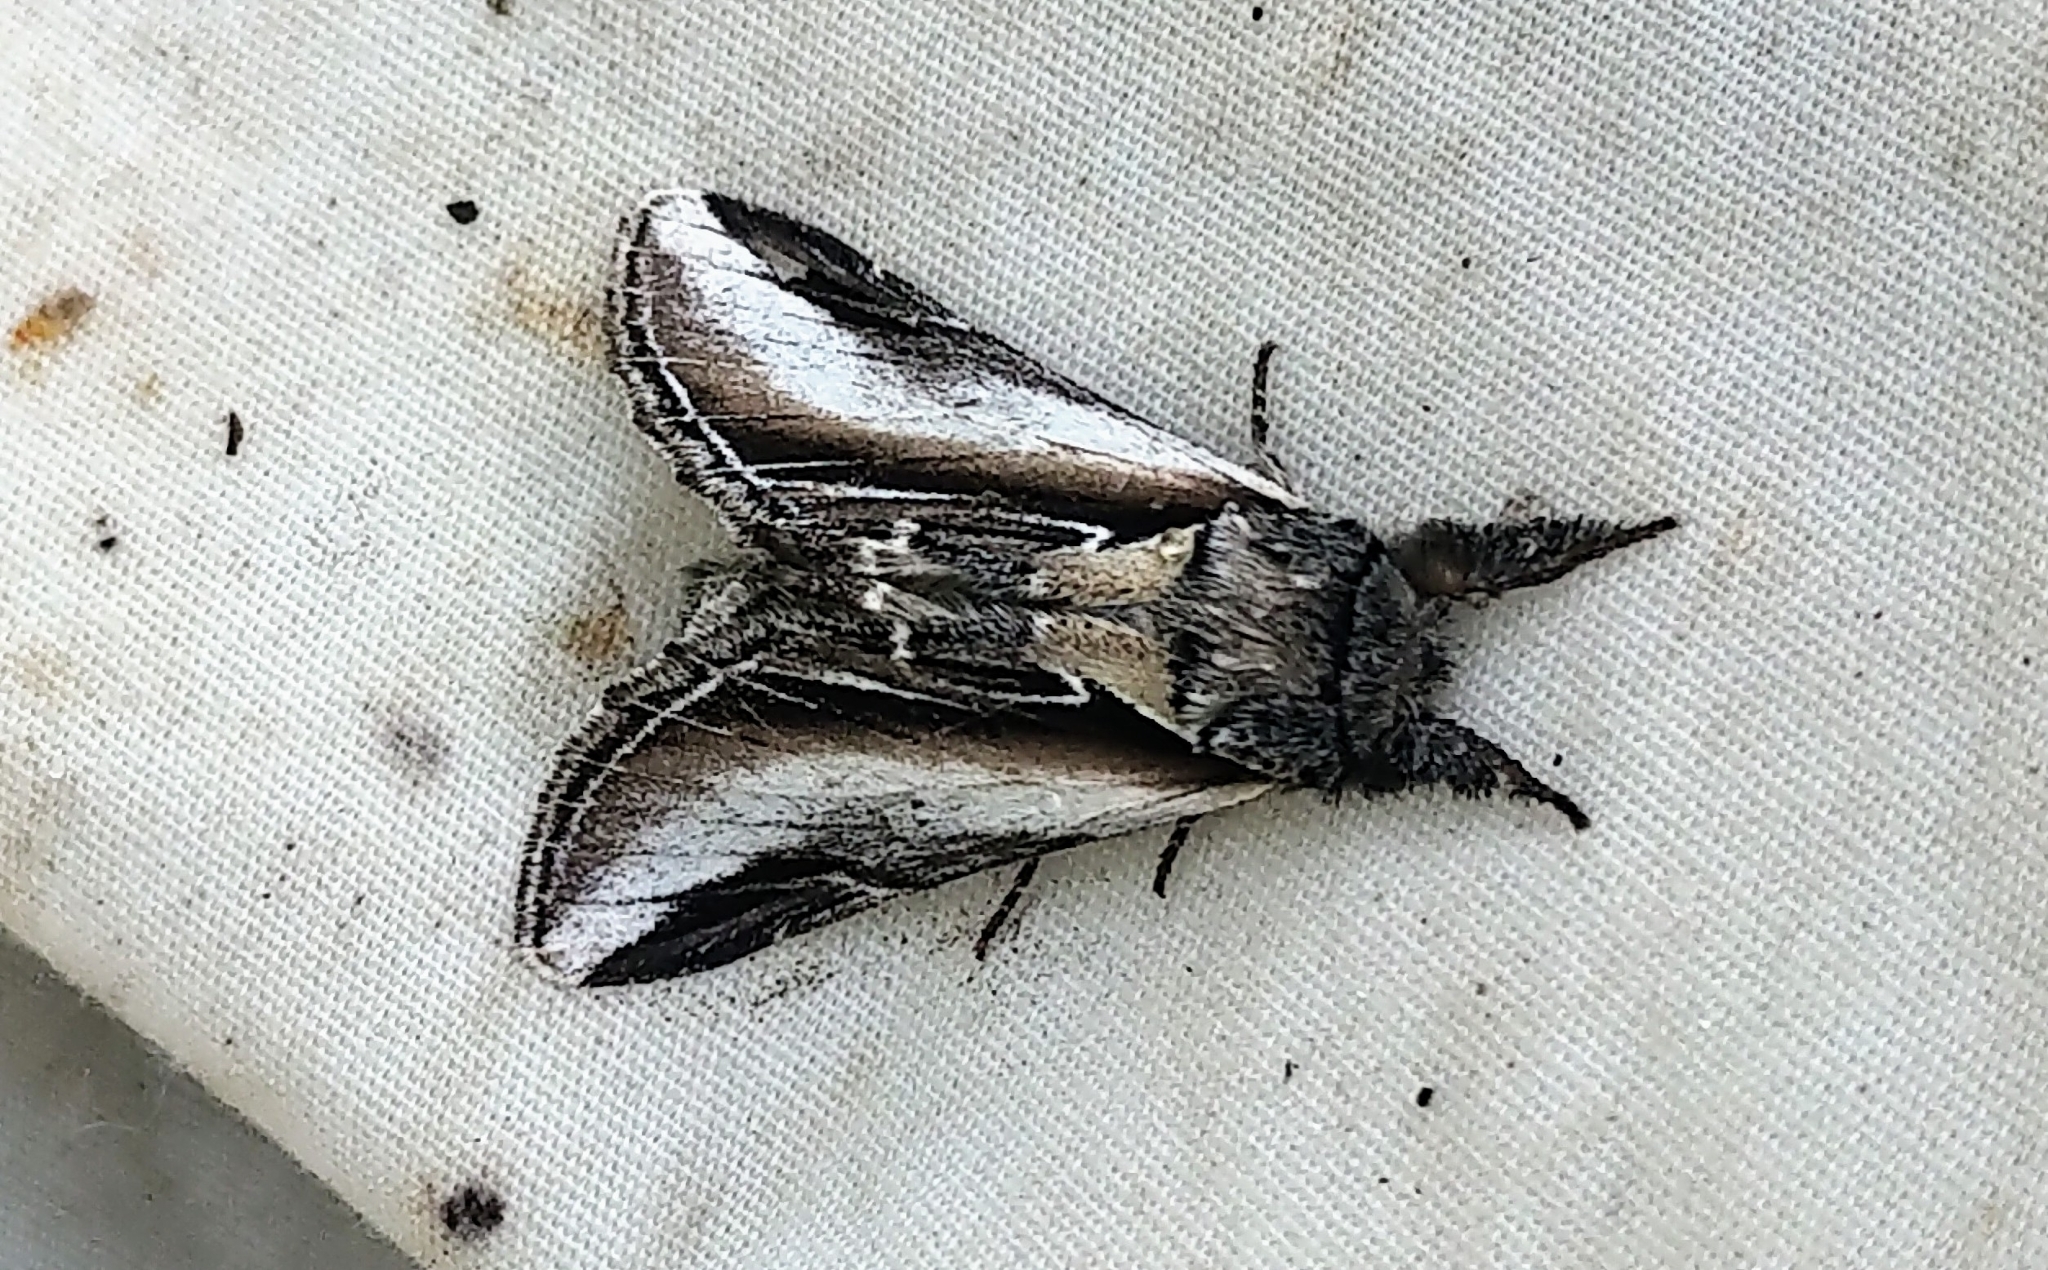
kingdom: Animalia
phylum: Arthropoda
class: Insecta
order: Lepidoptera
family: Notodontidae
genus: Pheosia
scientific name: Pheosia rimosa
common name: Black-rimmed prominent
